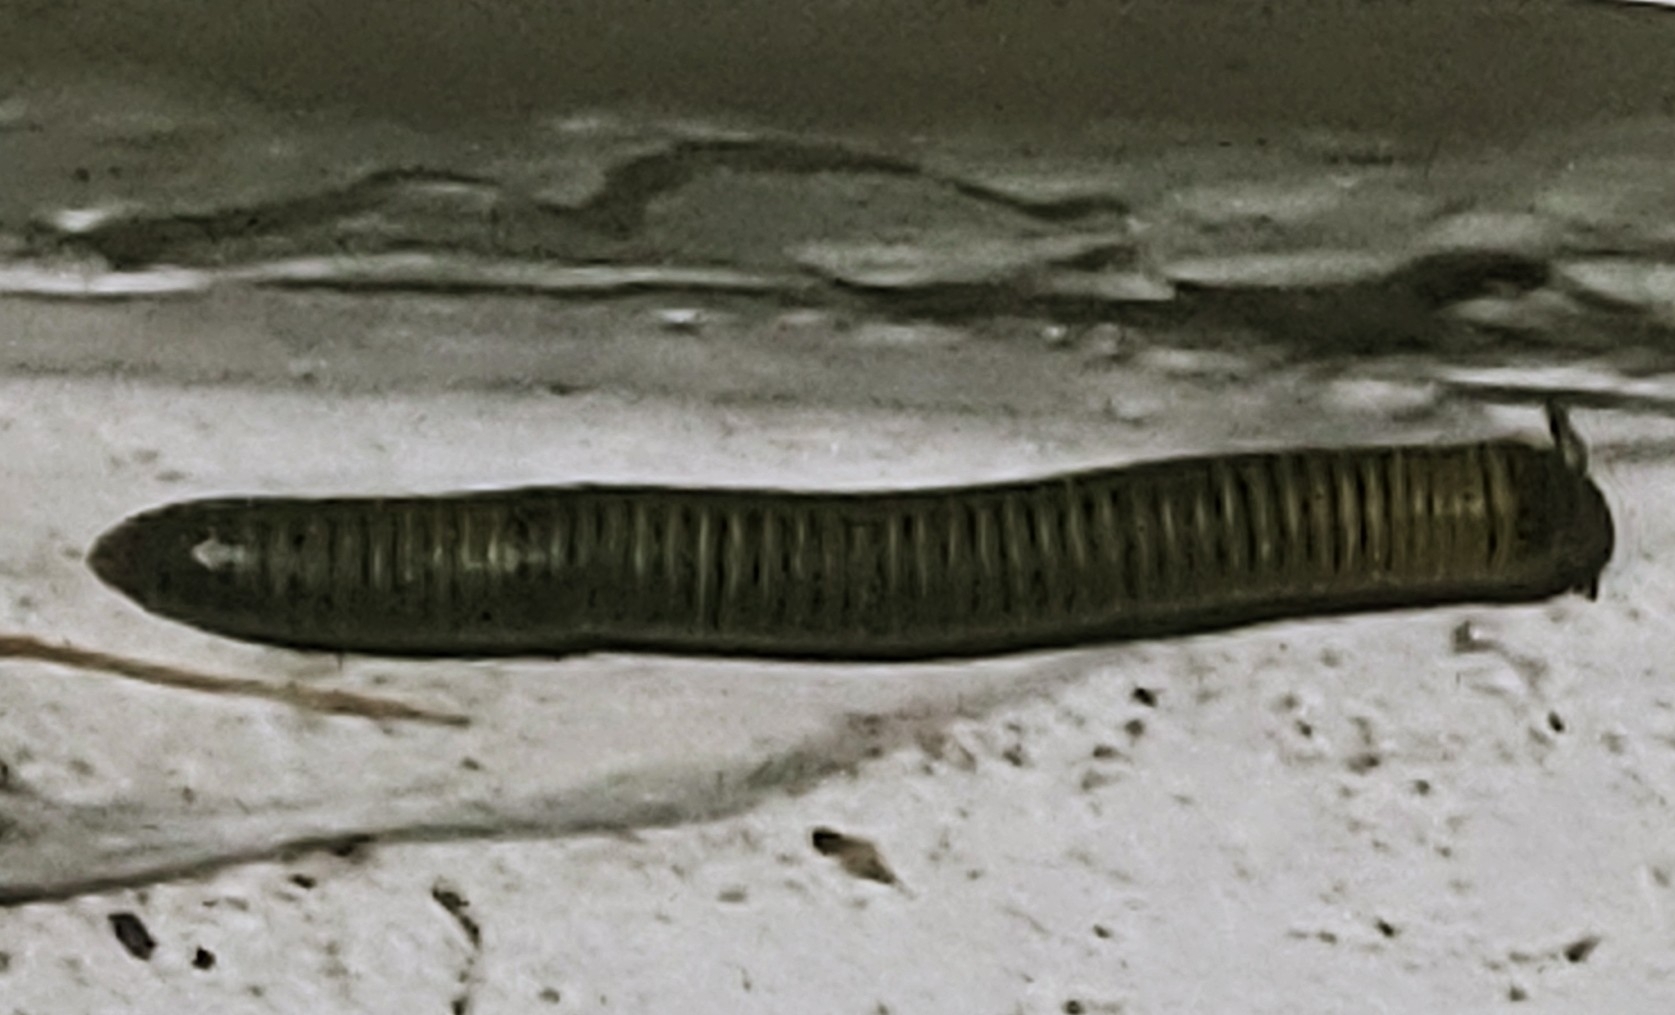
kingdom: Animalia
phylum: Arthropoda
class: Diplopoda
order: Spirobolida
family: Rhinocricidae
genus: Anadenobolus
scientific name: Anadenobolus monilicornis
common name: Caribbean millipede
